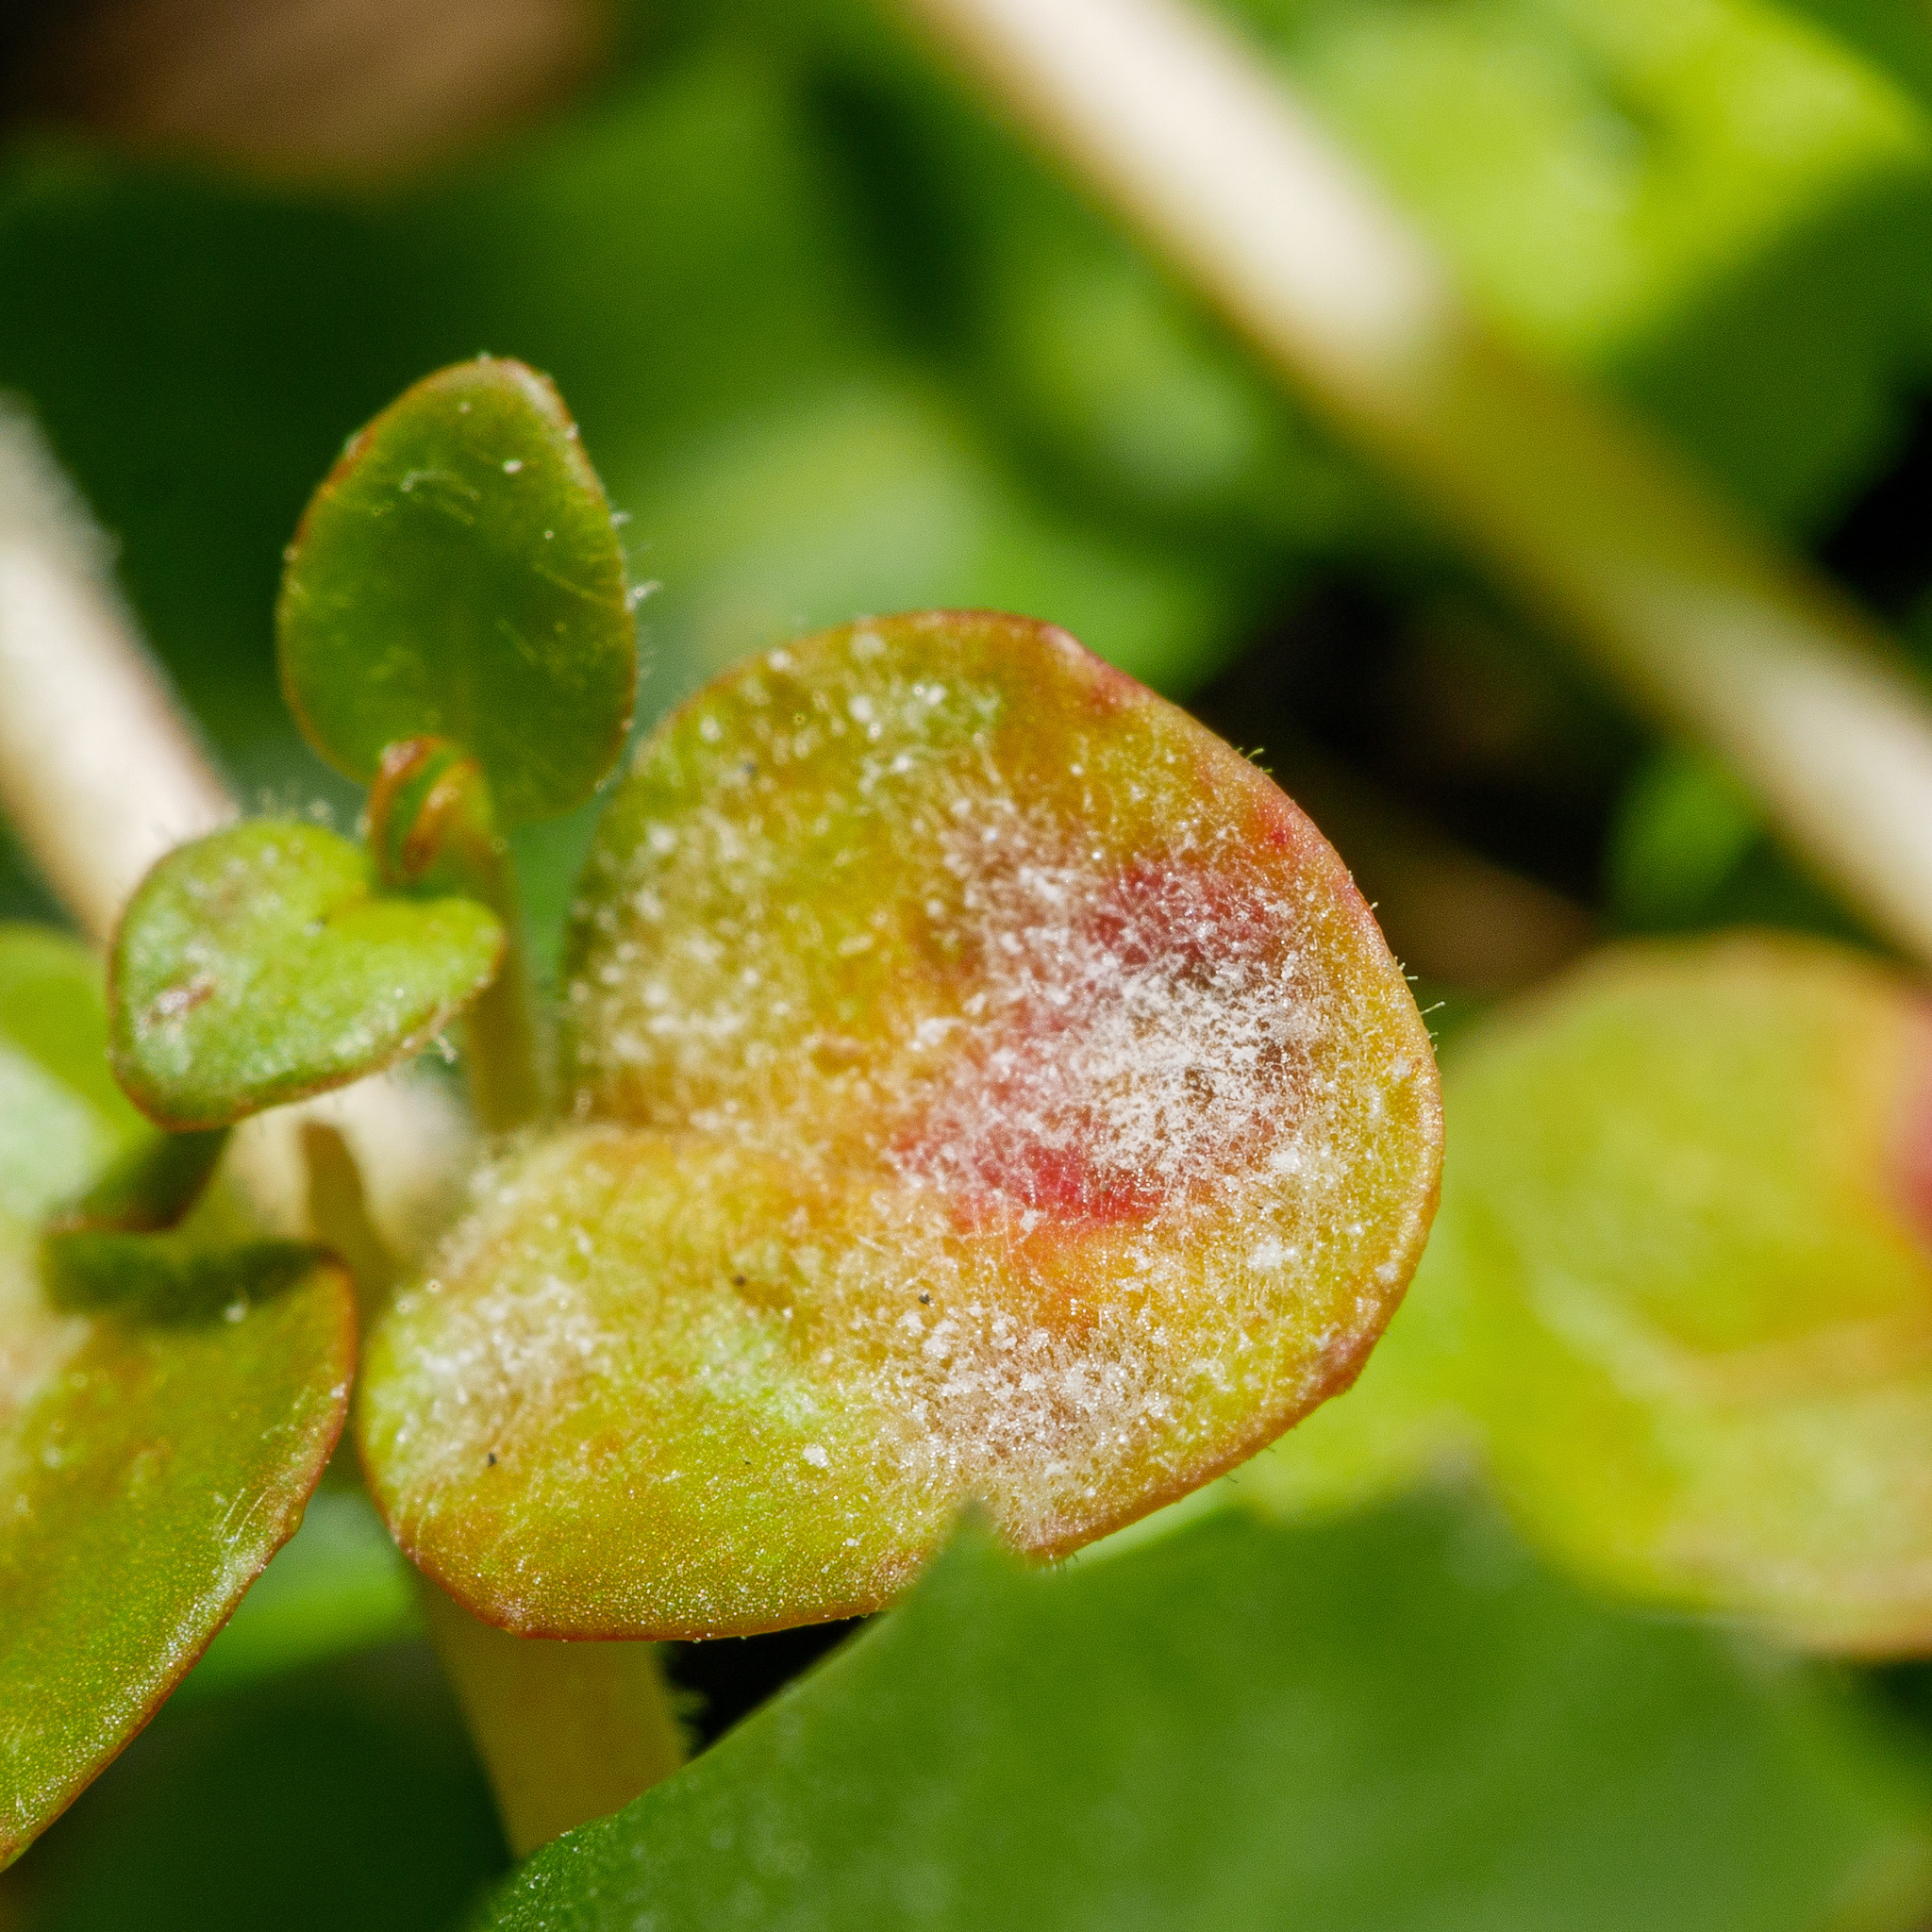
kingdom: Fungi
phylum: Ascomycota
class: Leotiomycetes
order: Helotiales
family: Erysiphaceae
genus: Podosphaera
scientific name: Podosphaera epilobii
